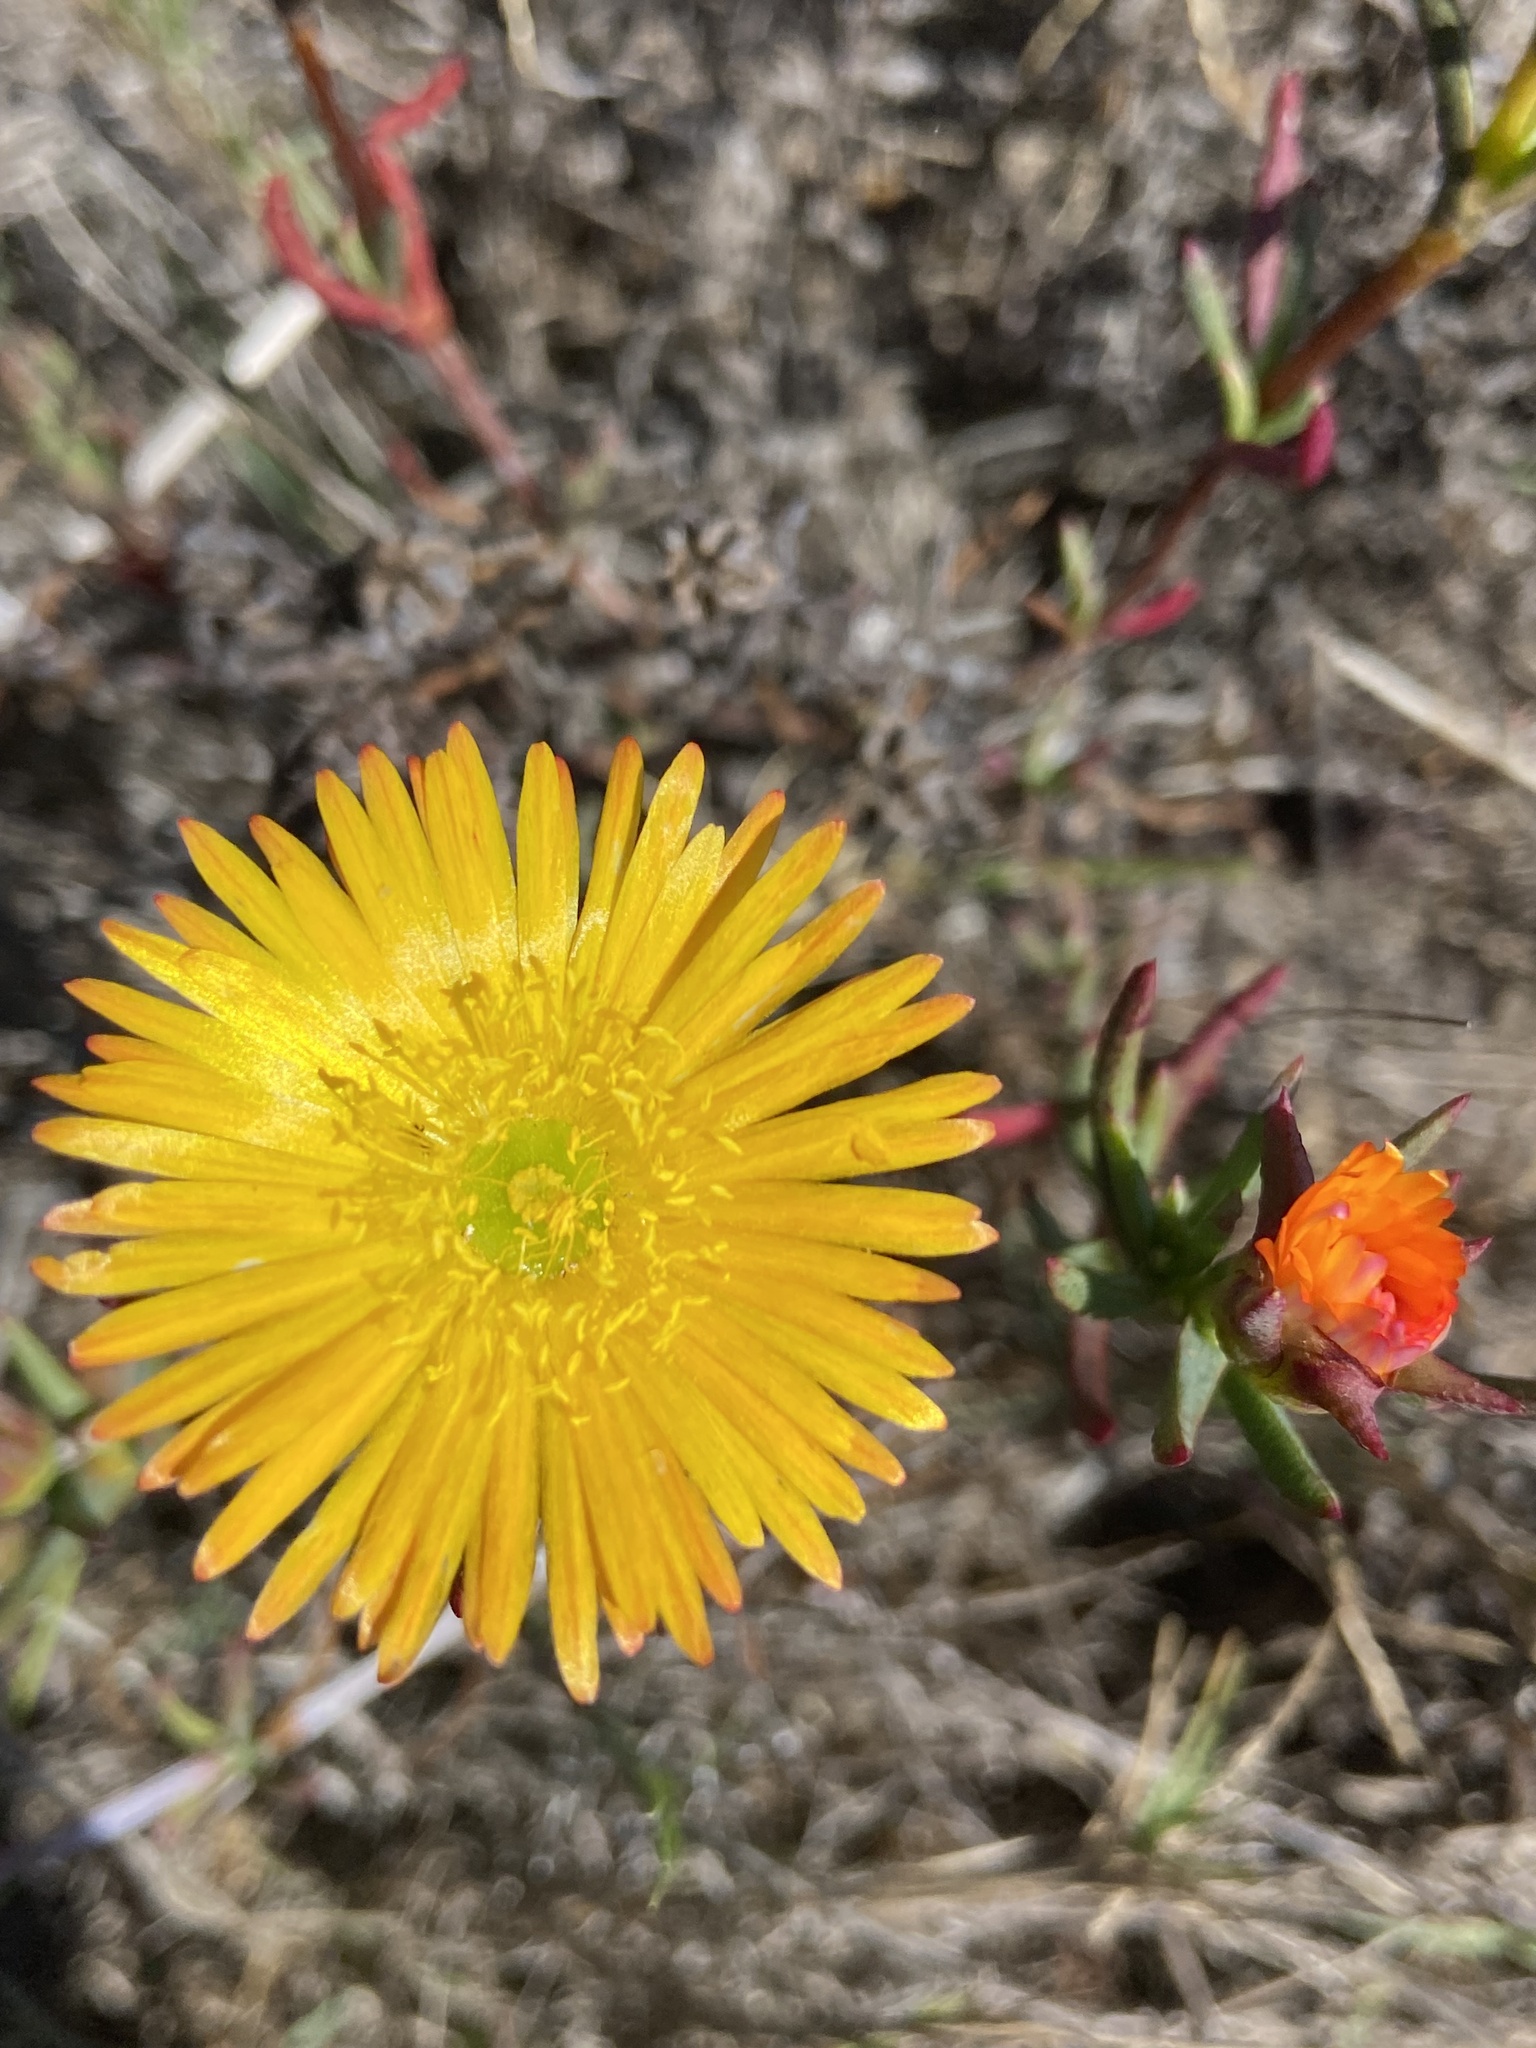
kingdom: Plantae
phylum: Tracheophyta
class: Magnoliopsida
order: Caryophyllales
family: Aizoaceae
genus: Lampranthus
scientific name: Lampranthus bicolor
